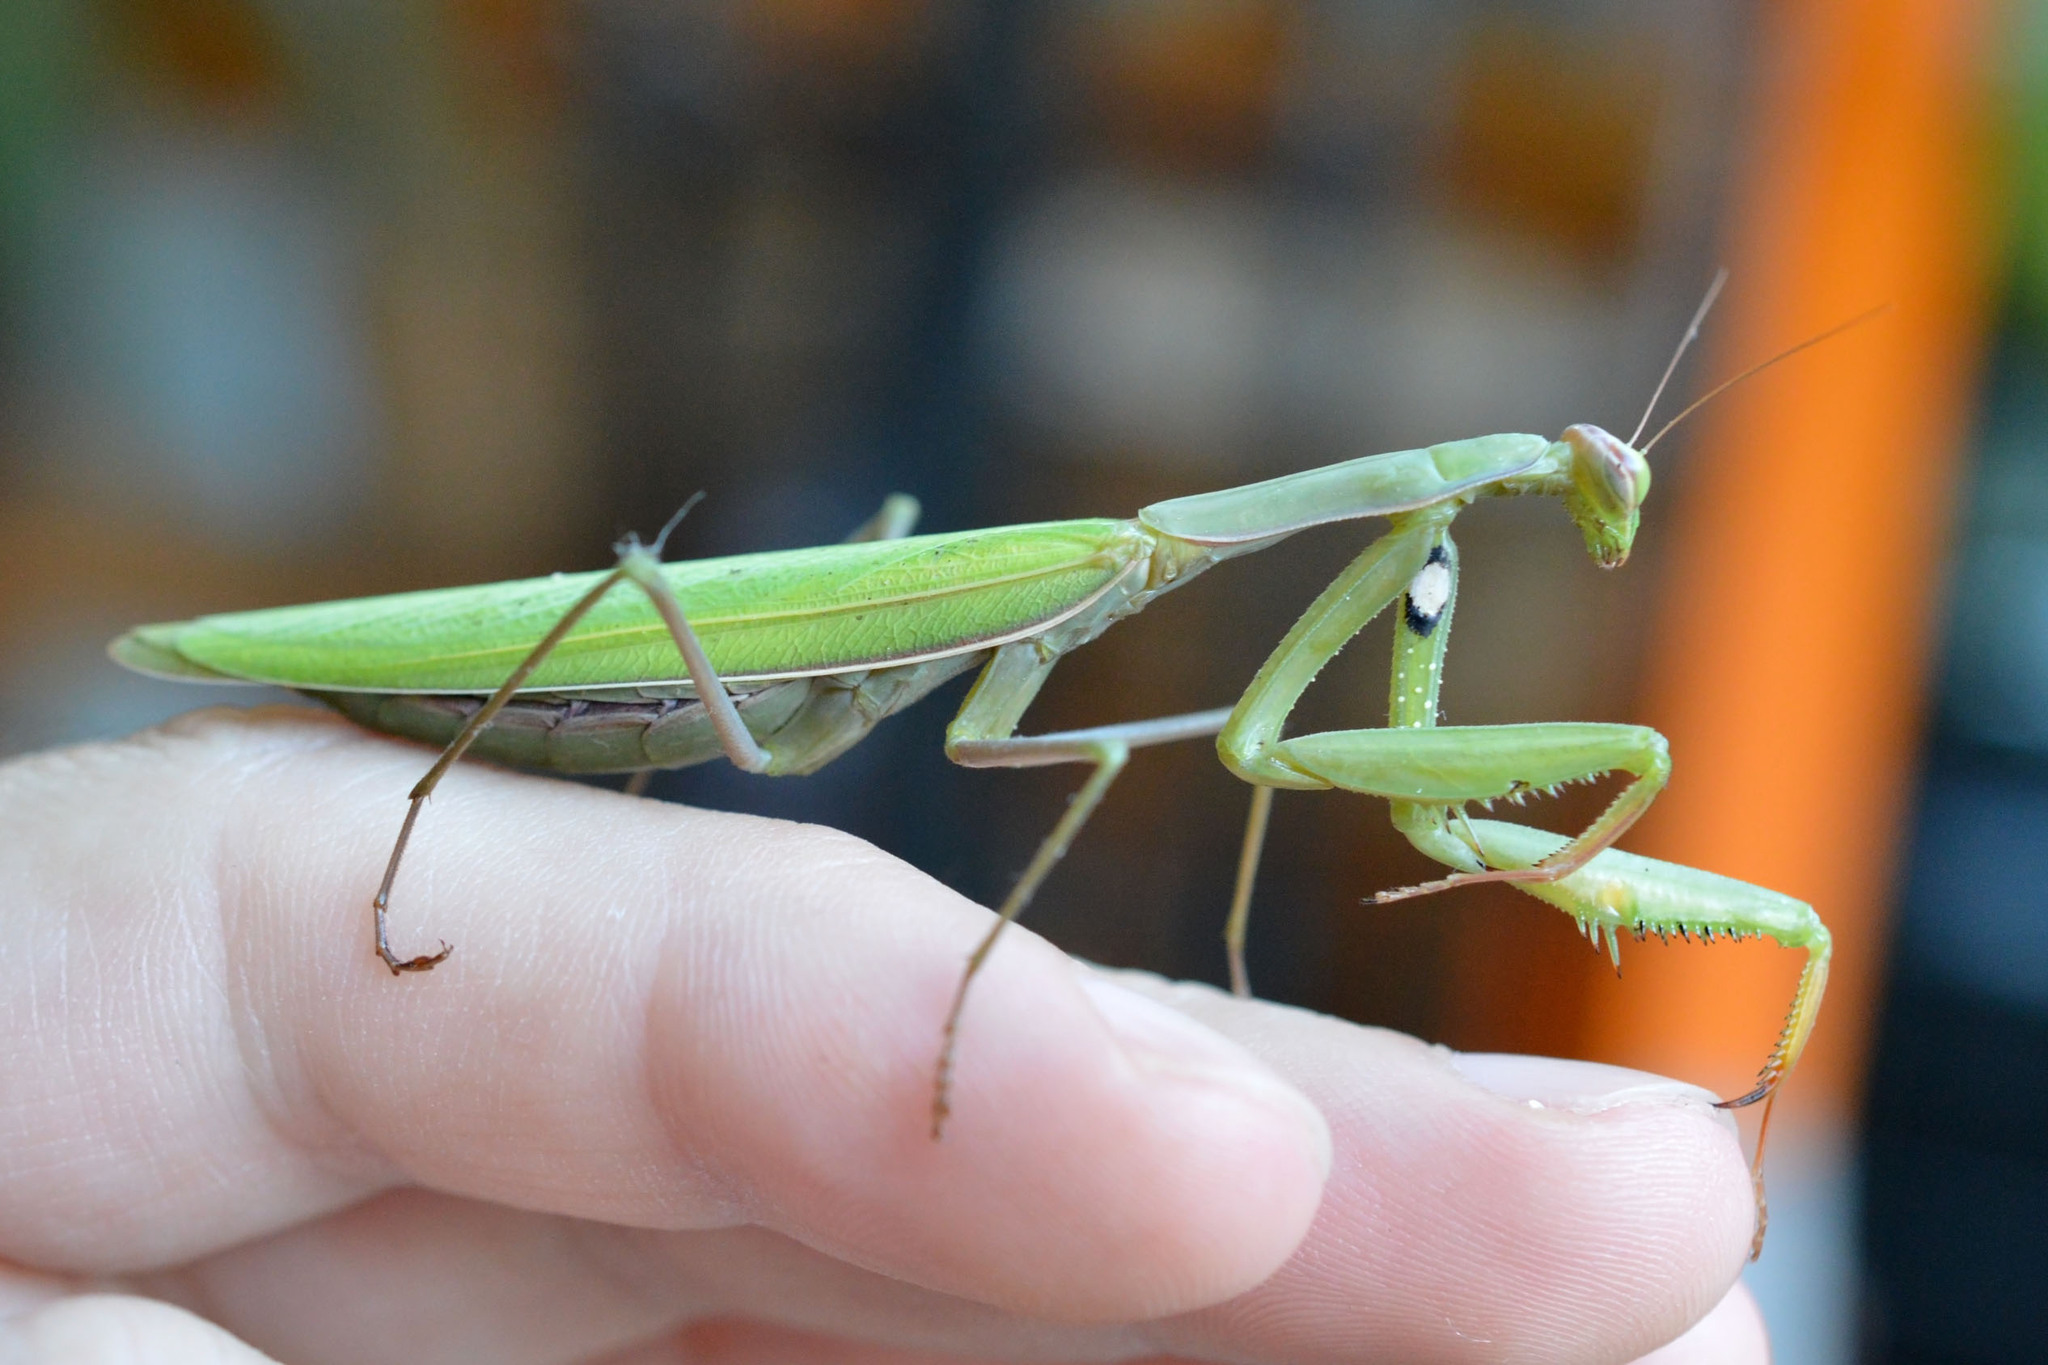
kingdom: Animalia
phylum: Arthropoda
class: Insecta
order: Mantodea
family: Mantidae
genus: Mantis
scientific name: Mantis religiosa
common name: Praying mantis
